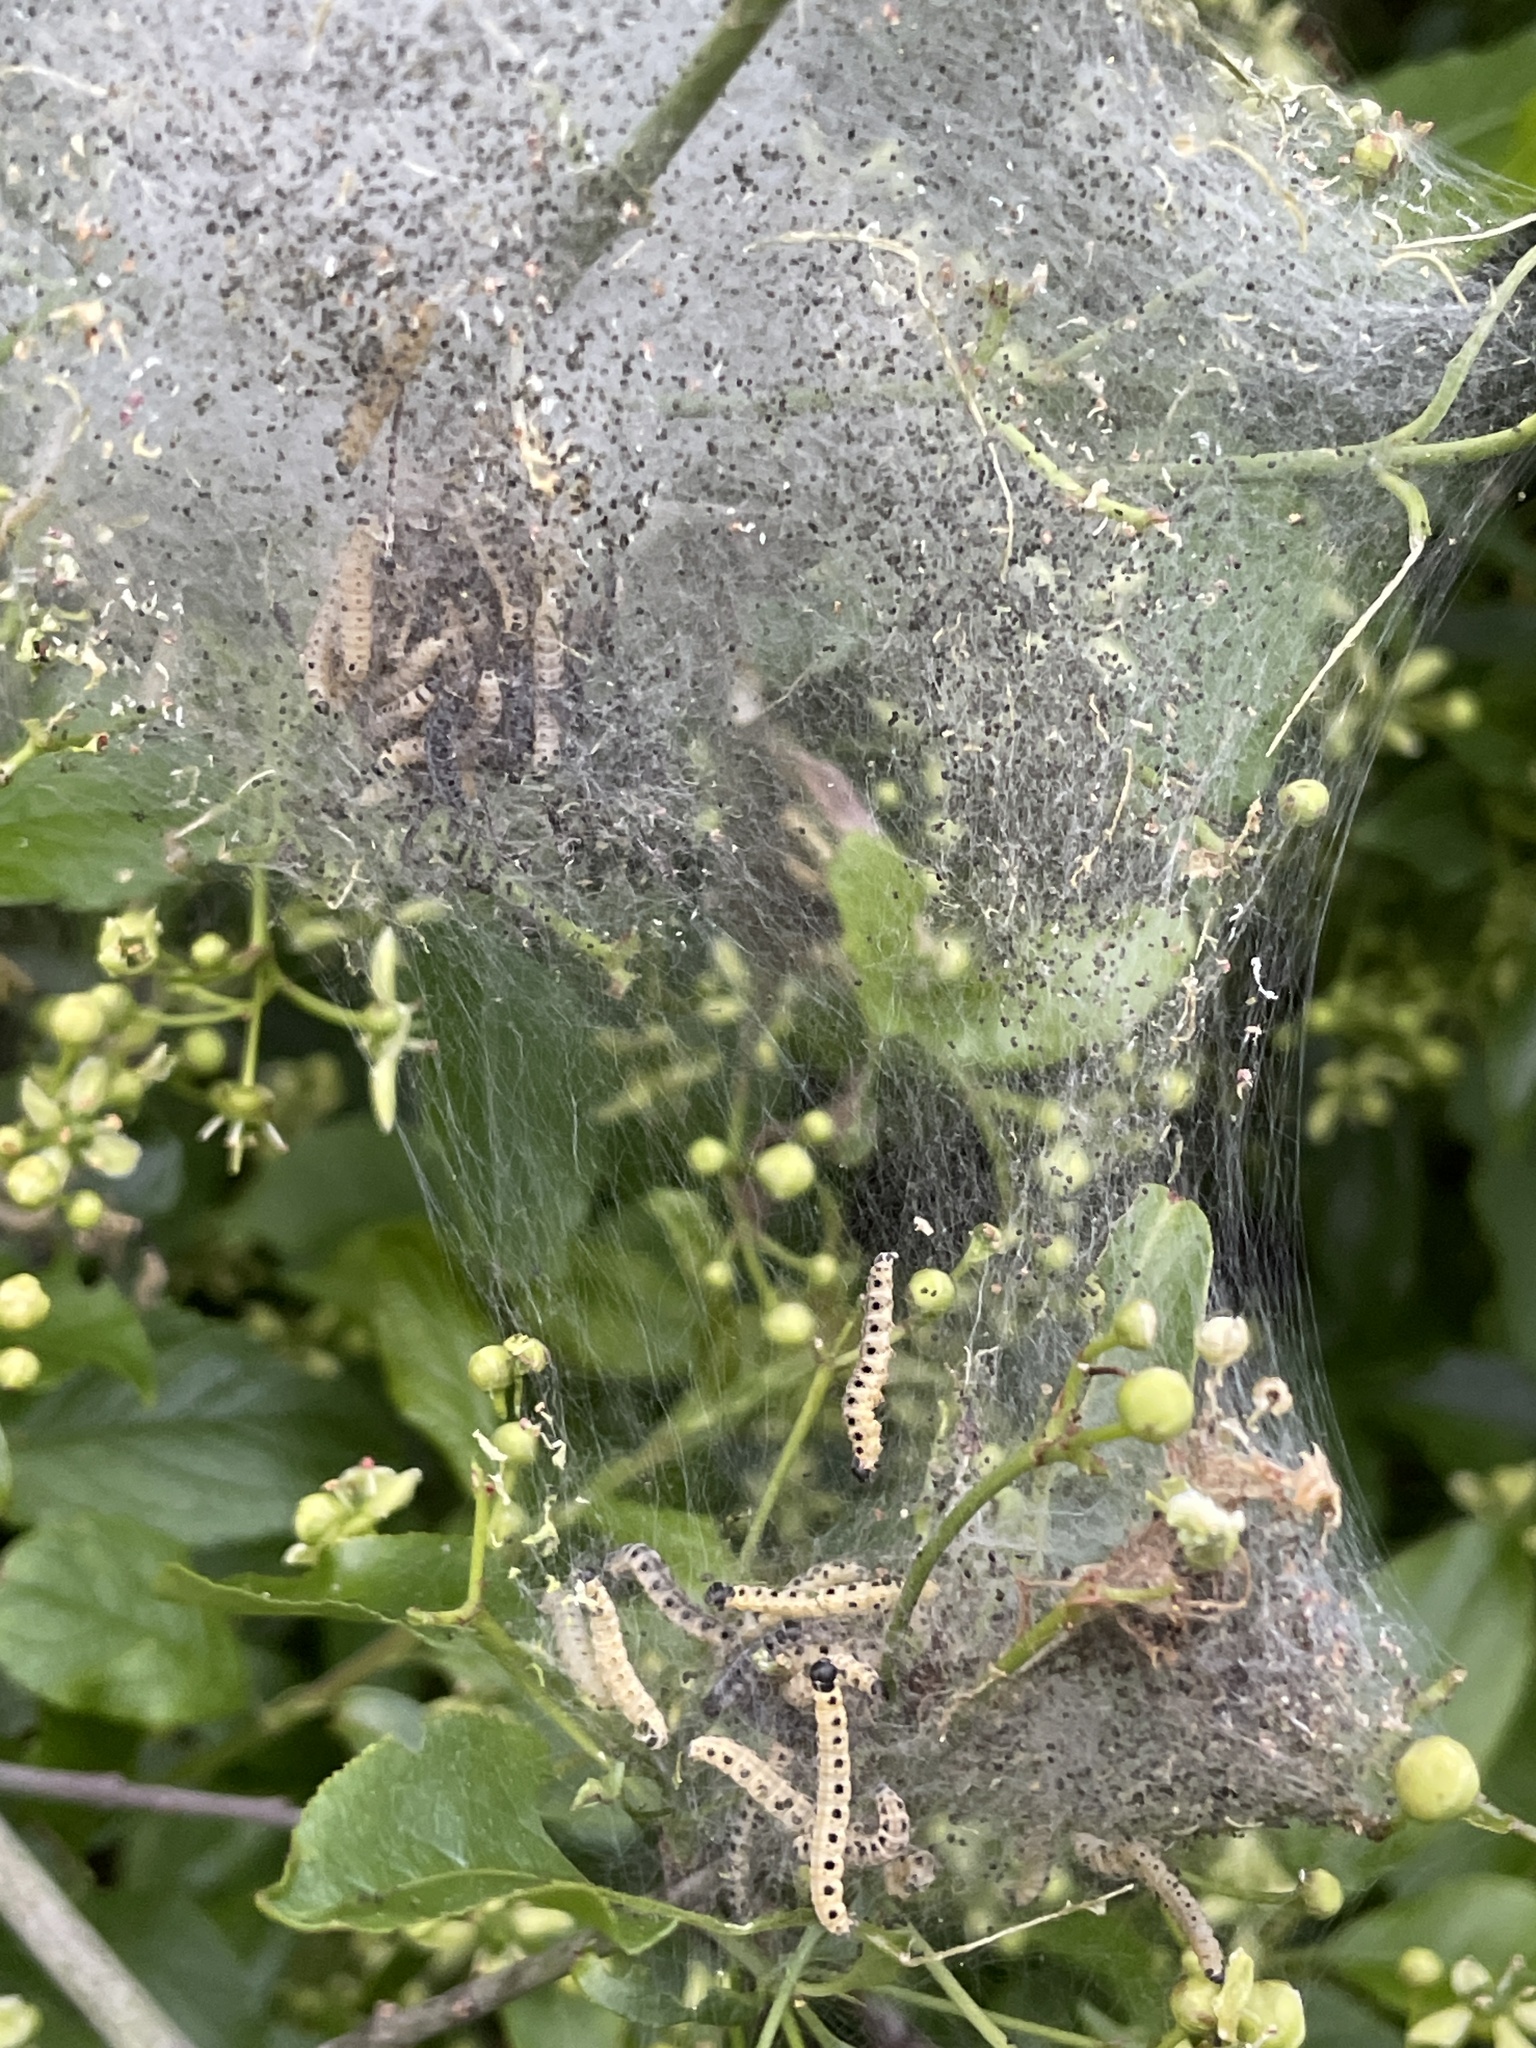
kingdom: Animalia
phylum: Arthropoda
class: Insecta
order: Lepidoptera
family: Yponomeutidae
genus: Yponomeuta
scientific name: Yponomeuta cagnagellus
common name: Spindle ermine
